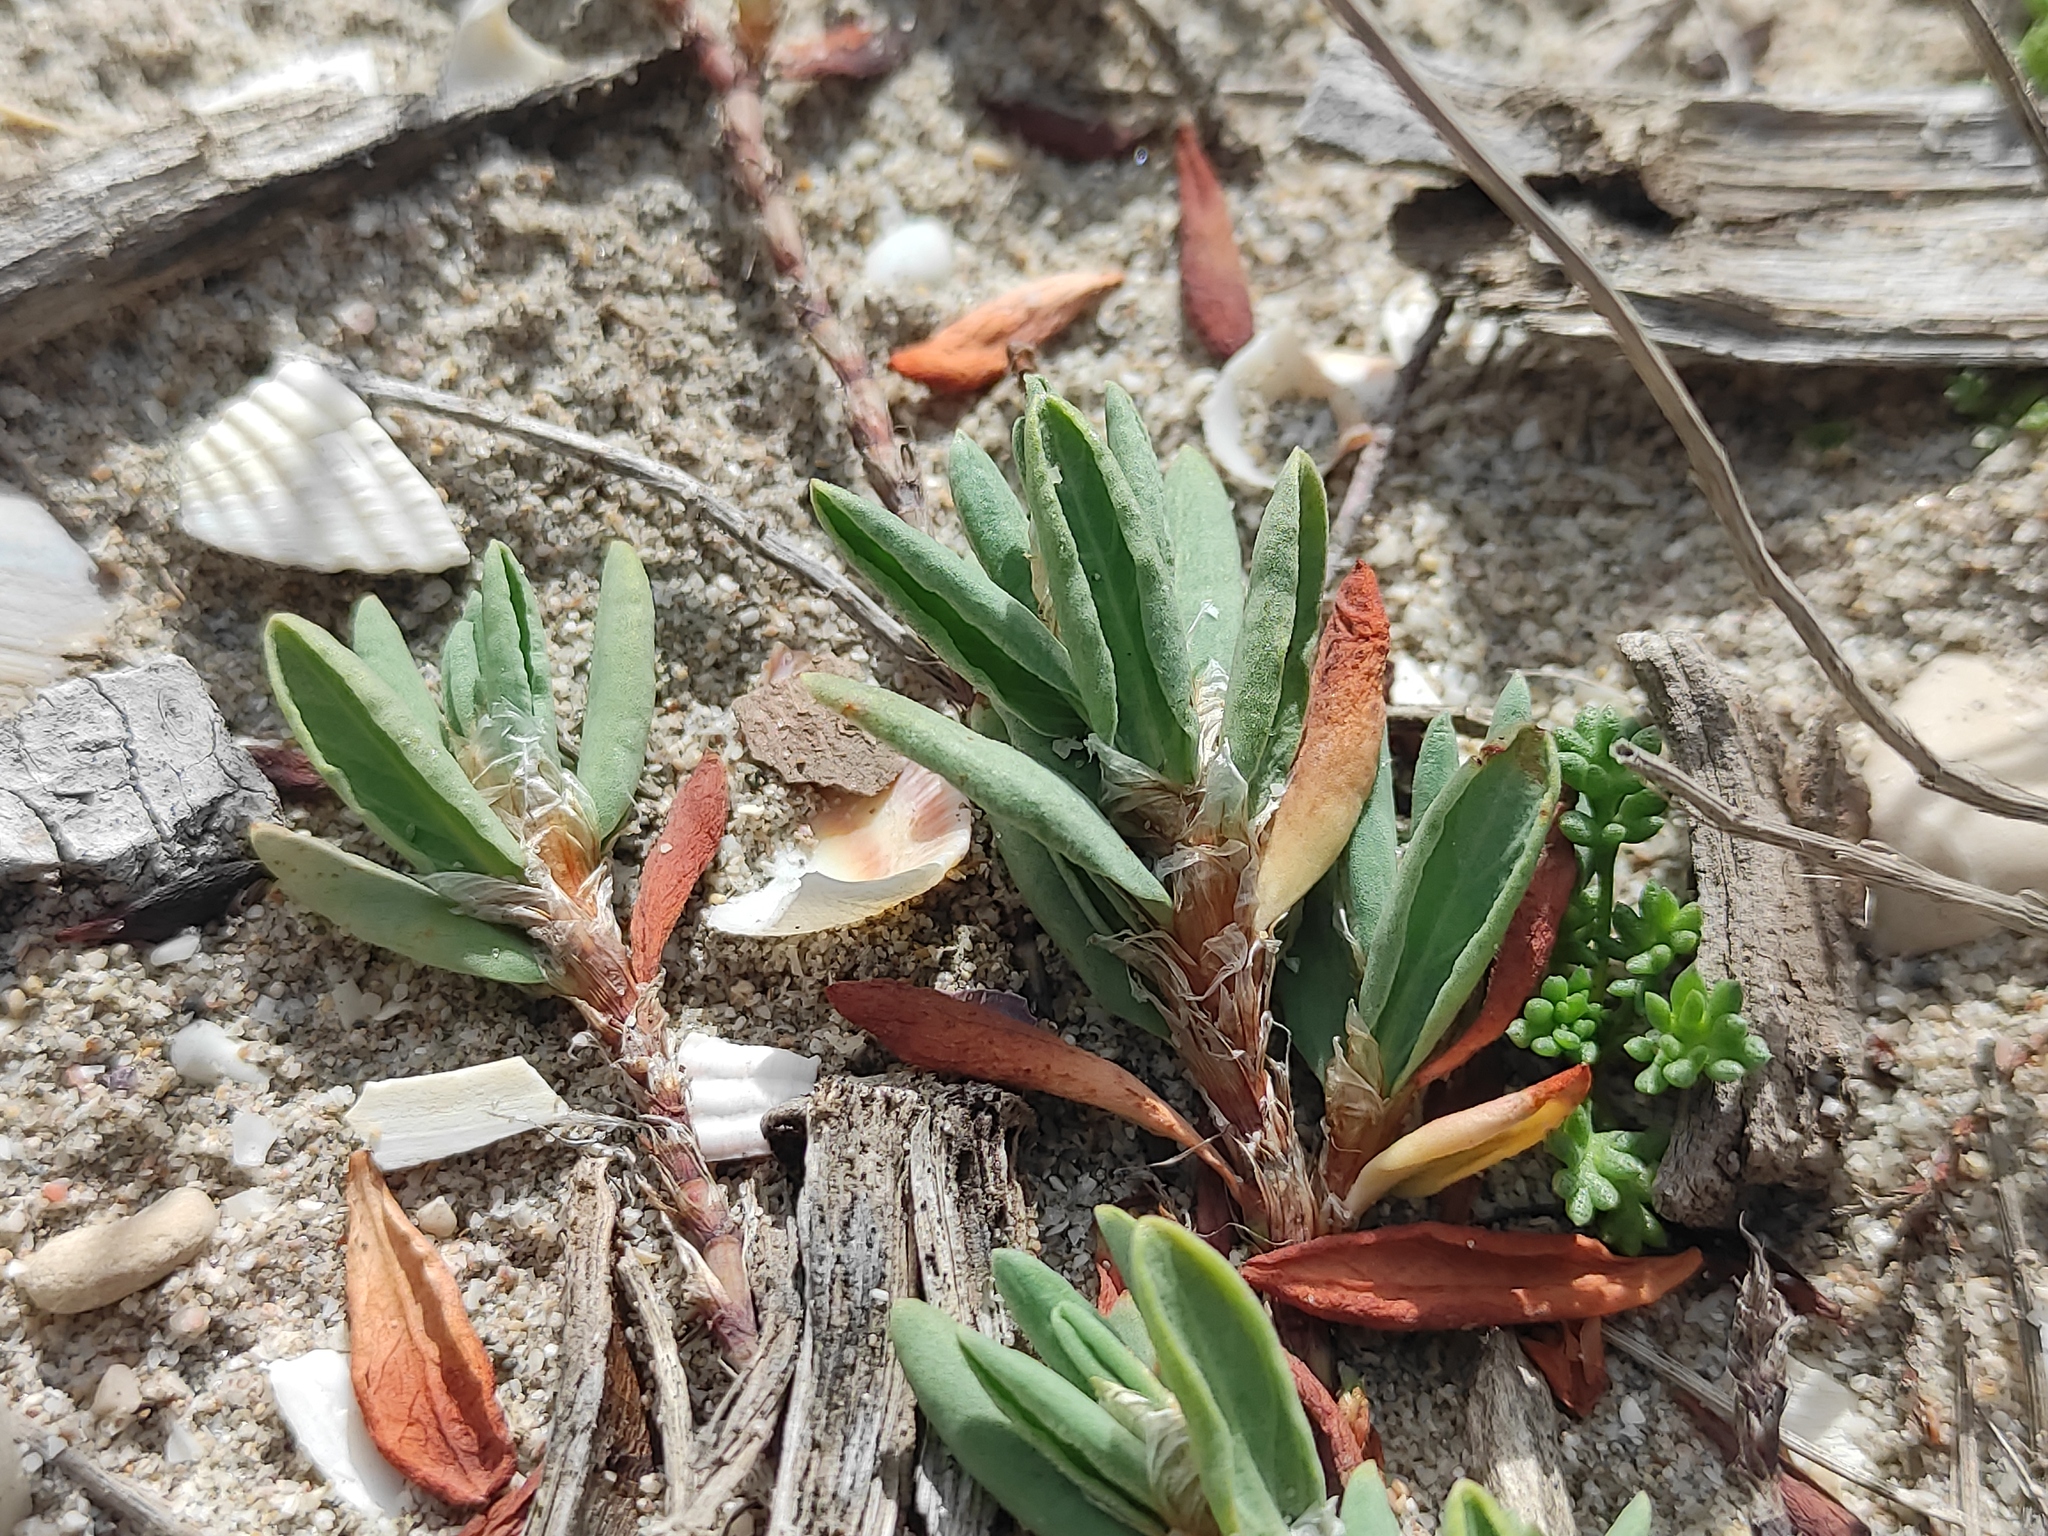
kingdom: Plantae
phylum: Tracheophyta
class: Magnoliopsida
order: Caryophyllales
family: Polygonaceae
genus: Polygonum
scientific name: Polygonum maritimum
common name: Sea knotgrass
